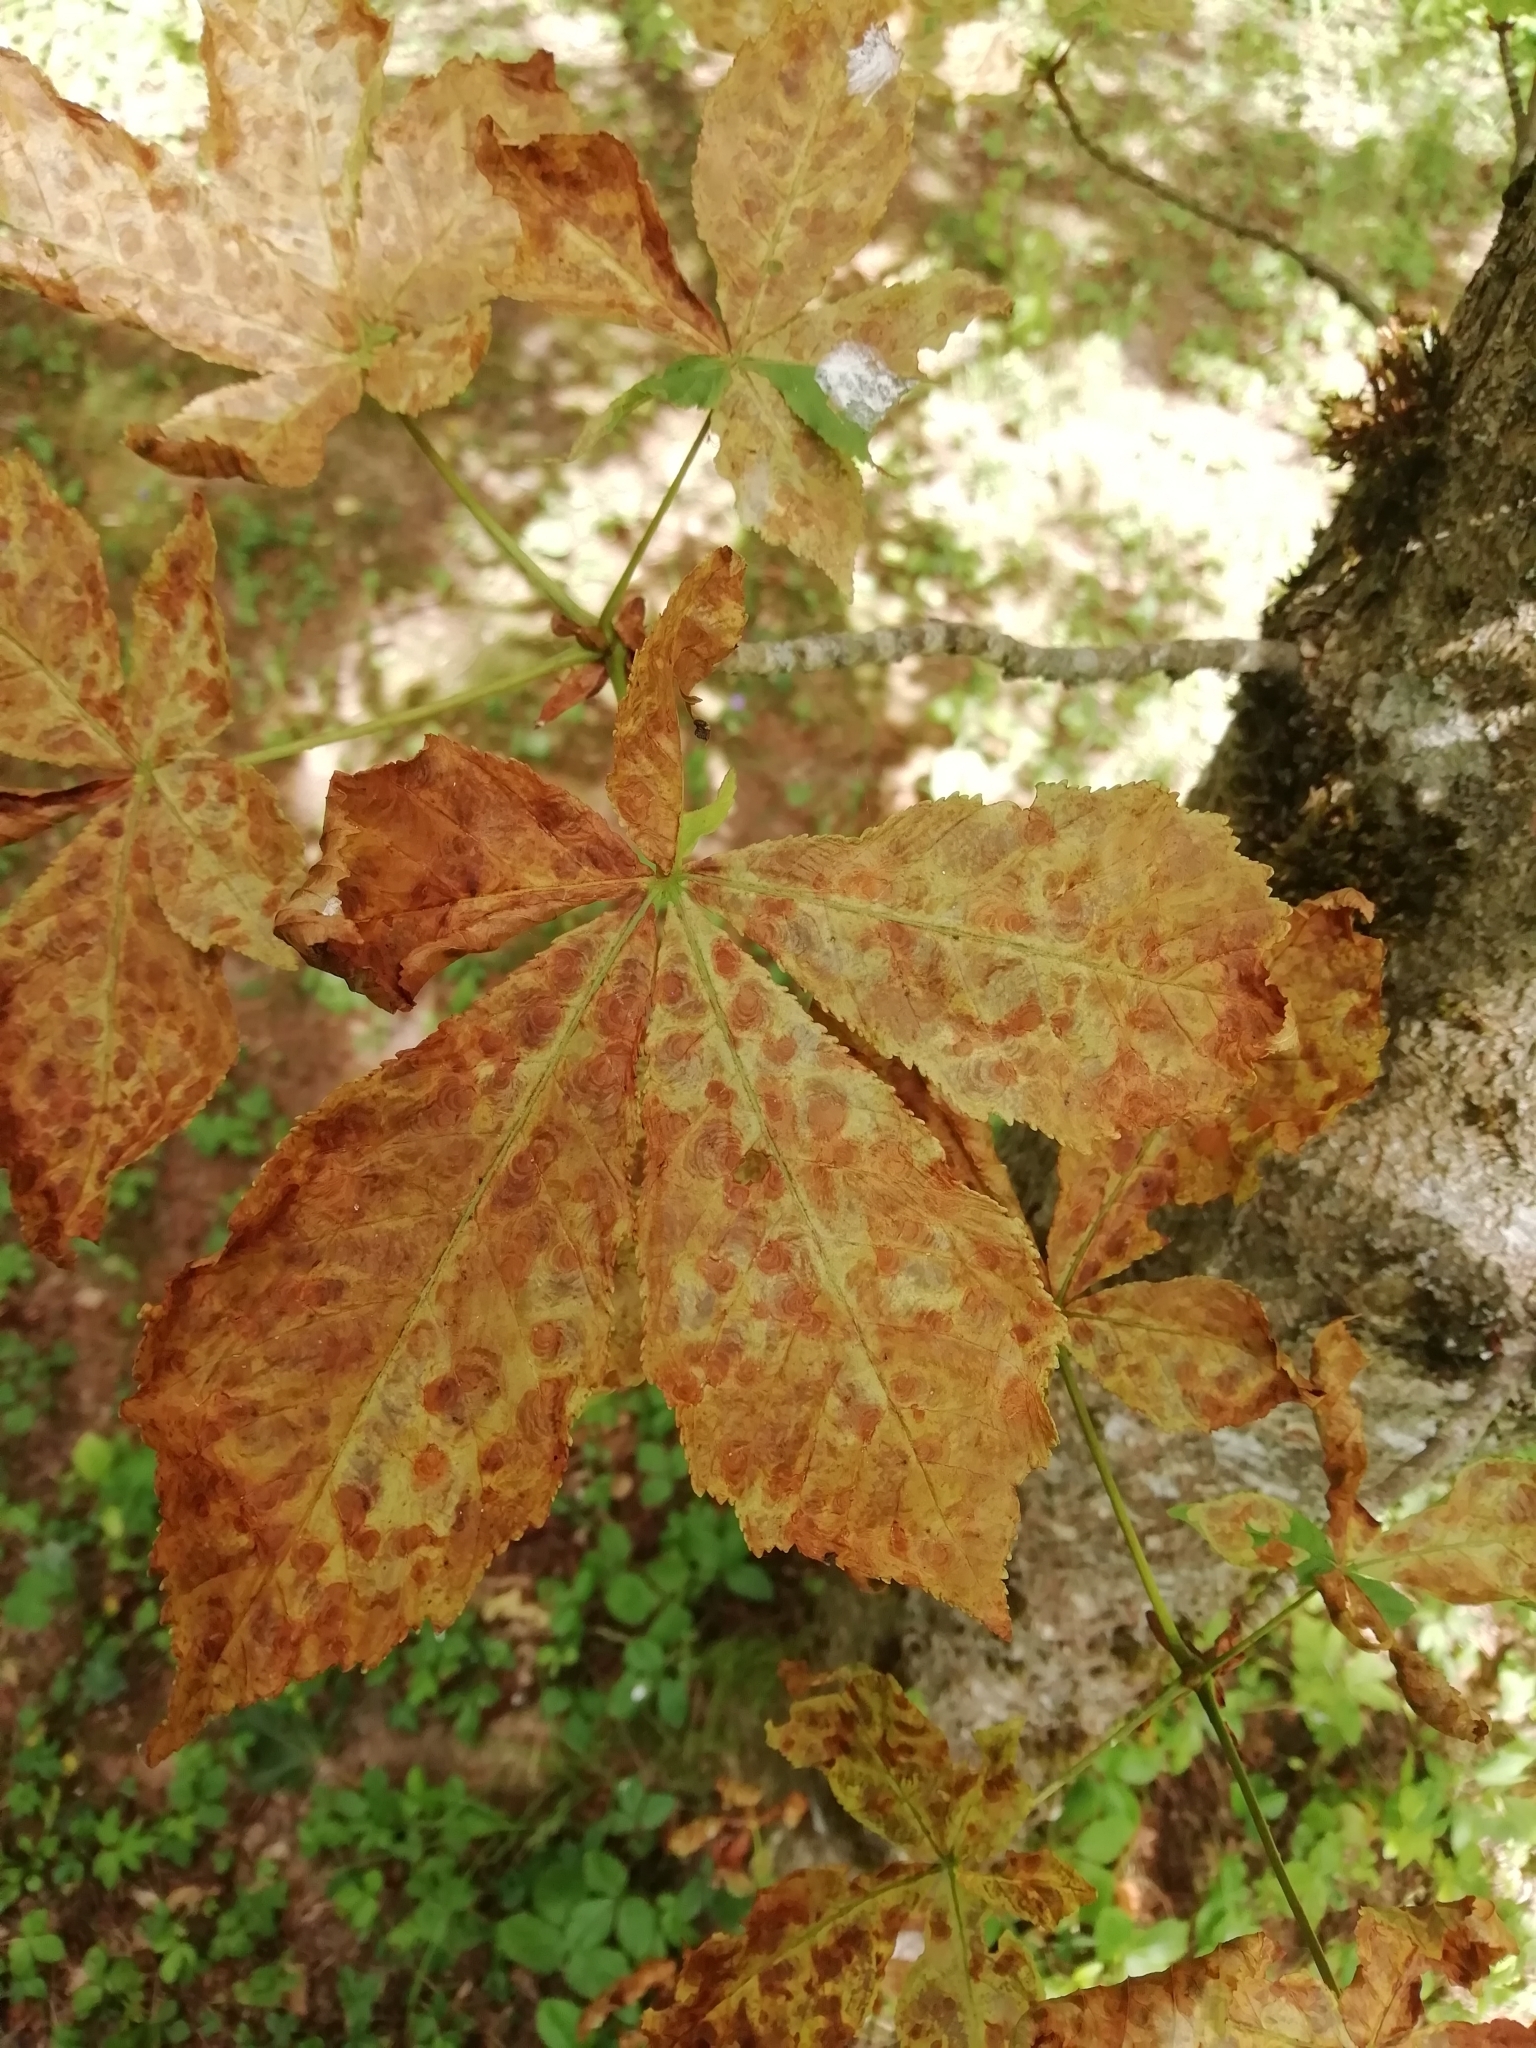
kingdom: Animalia
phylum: Arthropoda
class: Insecta
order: Lepidoptera
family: Gracillariidae
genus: Cameraria
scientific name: Cameraria ohridella
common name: Horse-chestnut leaf-miner
